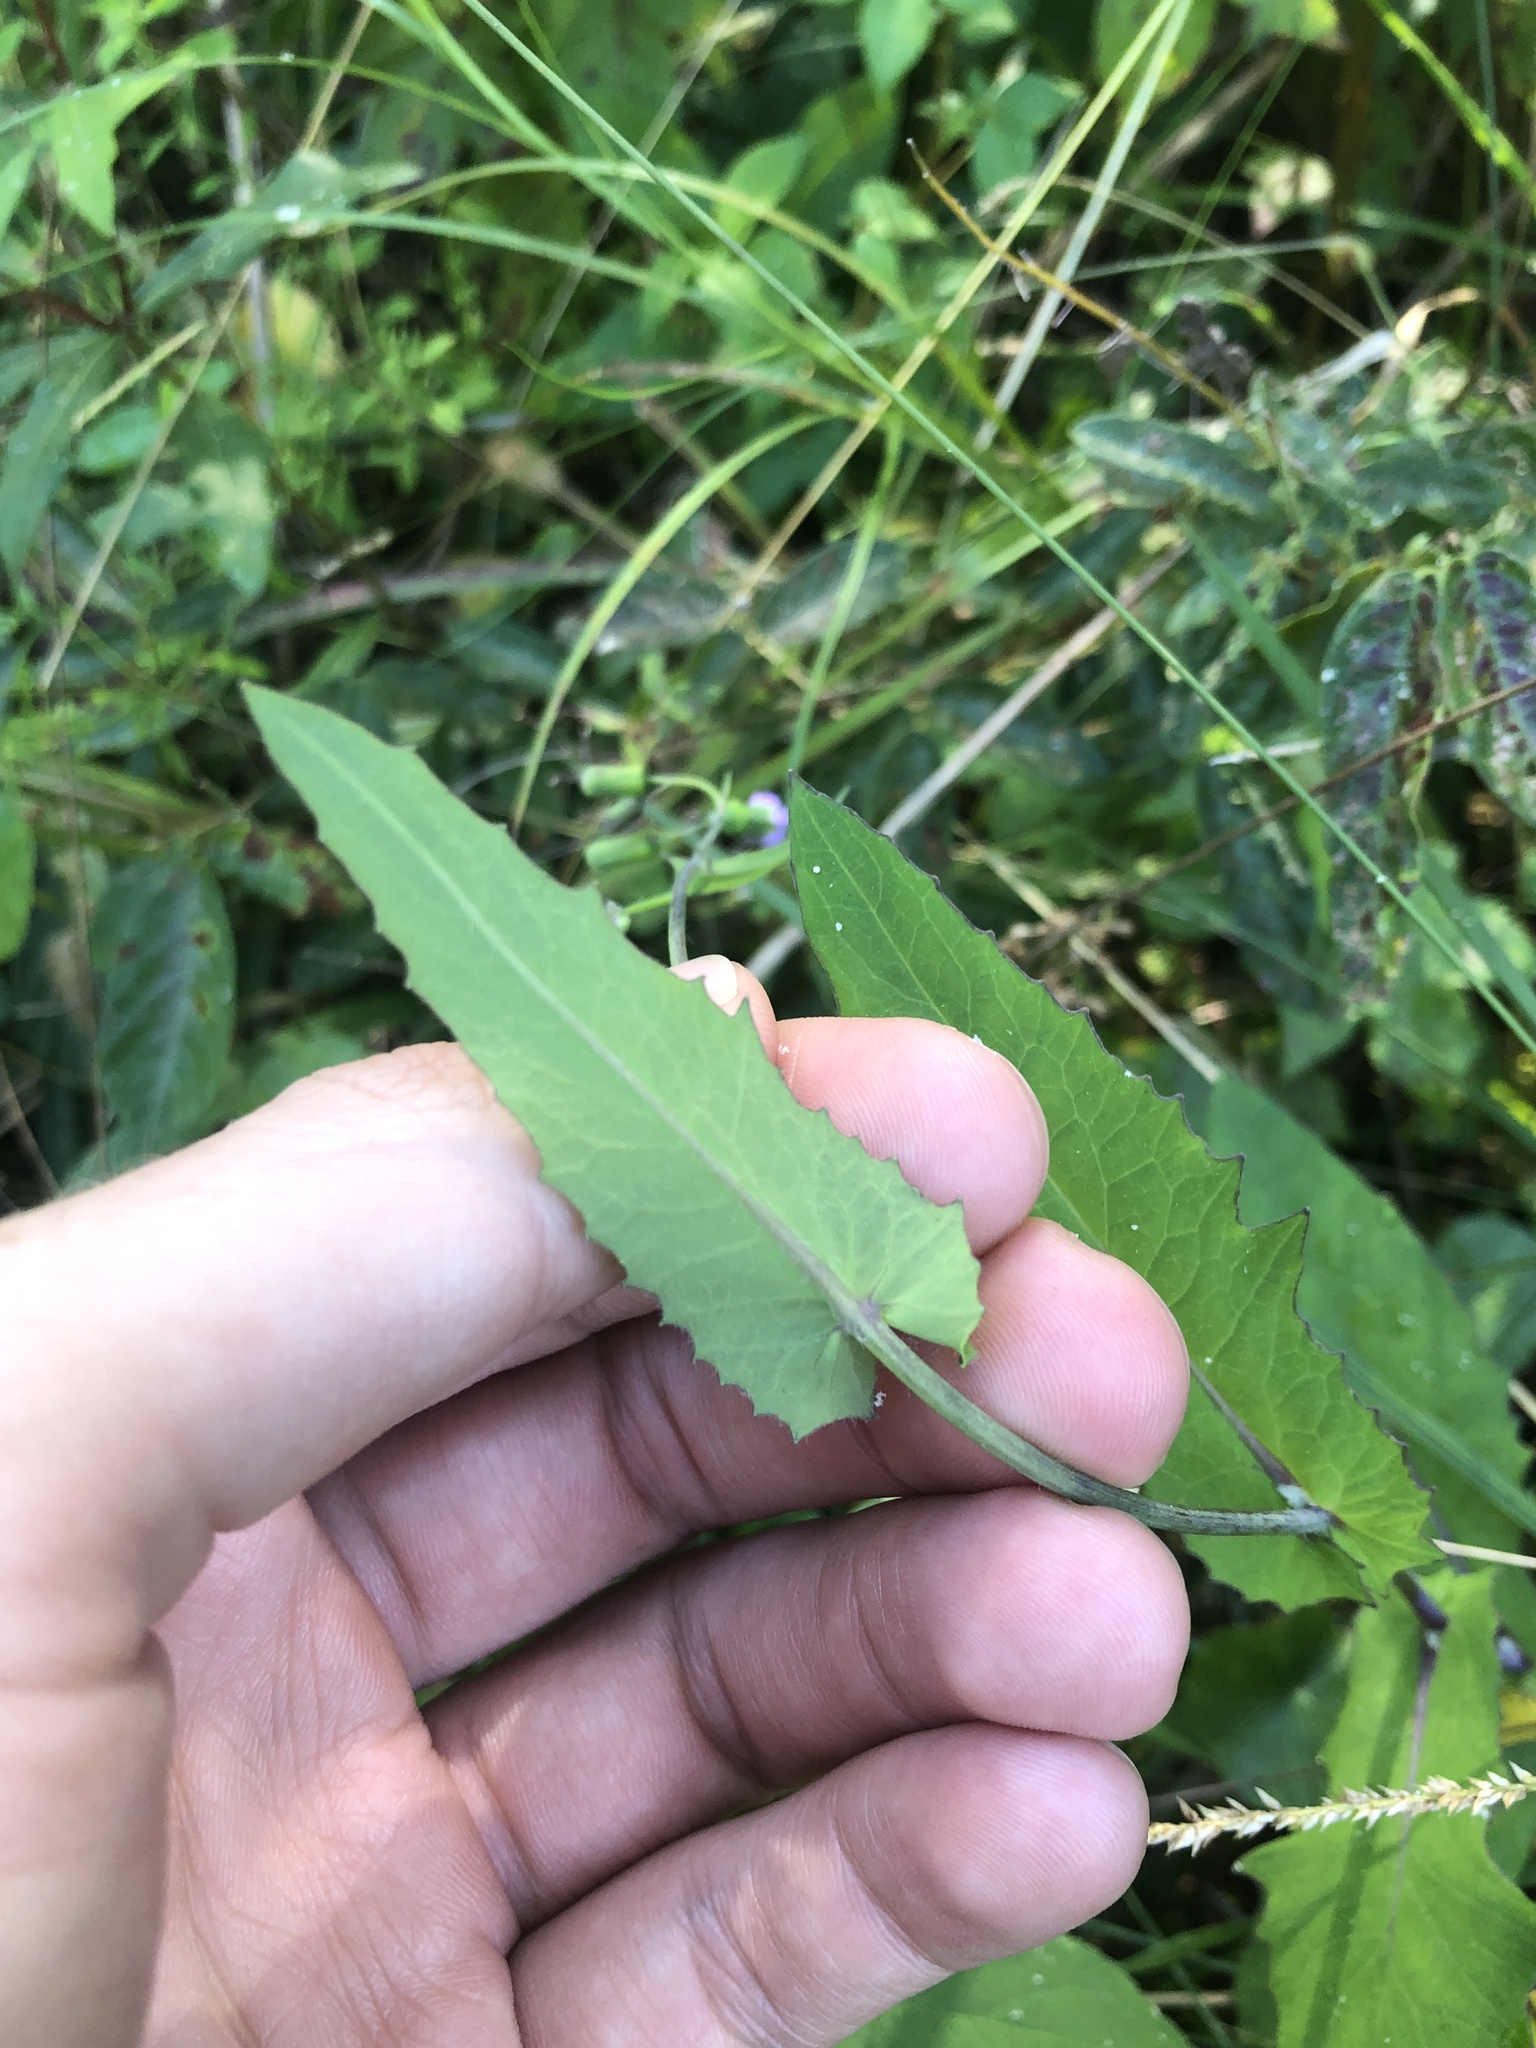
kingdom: Plantae
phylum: Tracheophyta
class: Magnoliopsida
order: Asterales
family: Asteraceae
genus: Emilia
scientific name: Emilia sonchifolia
